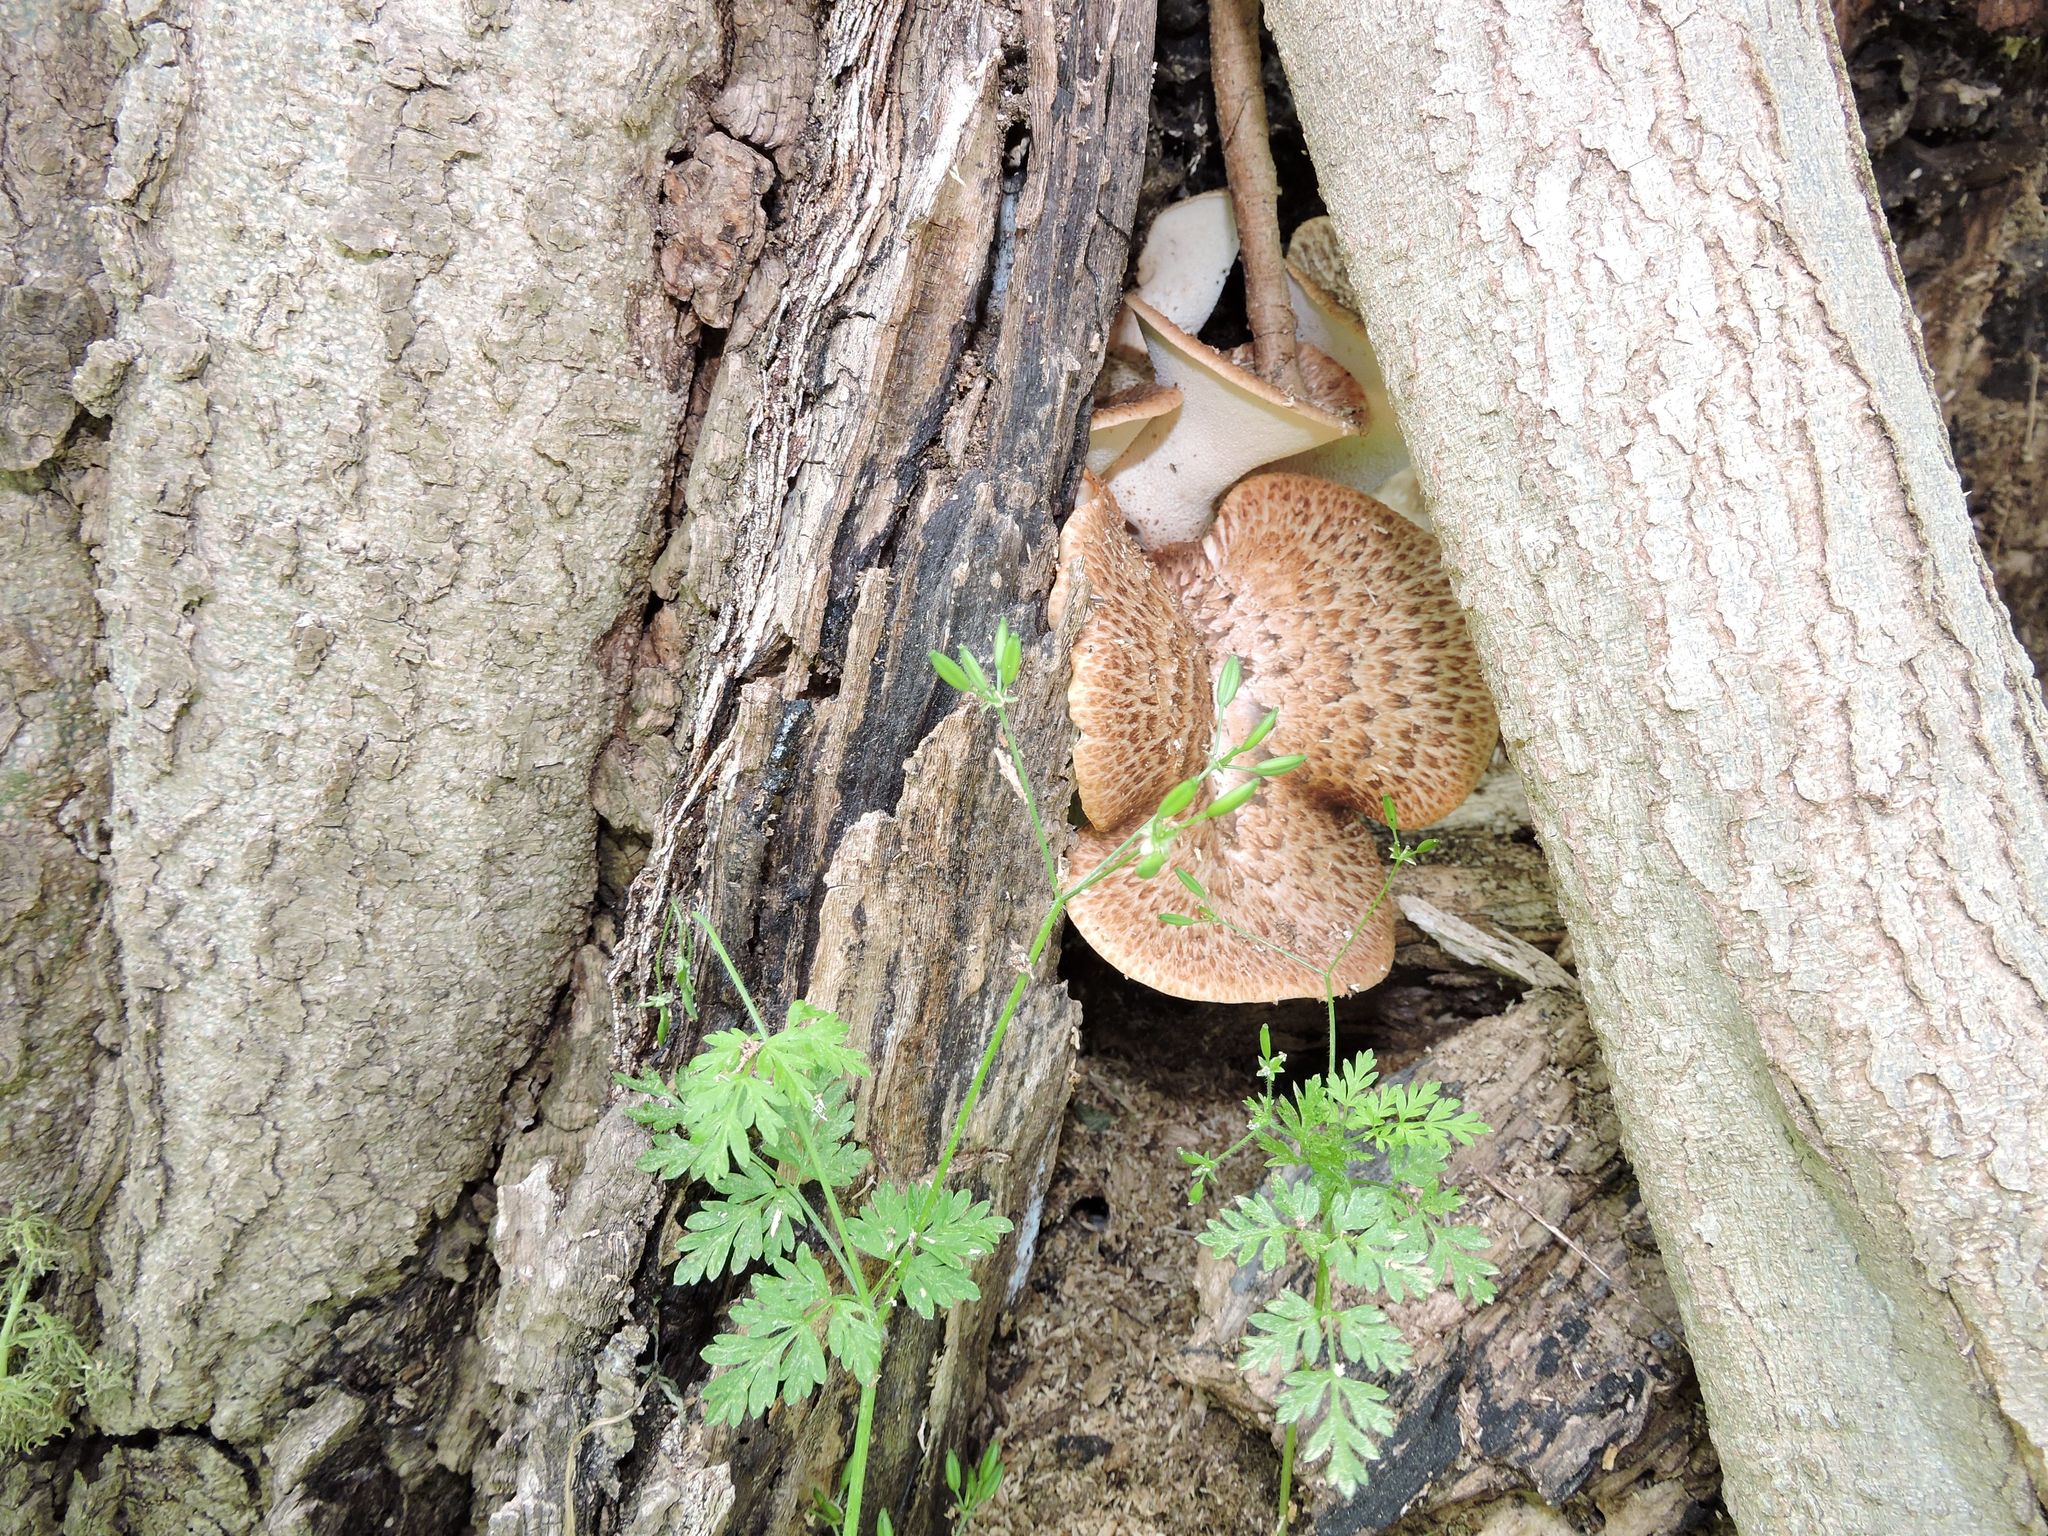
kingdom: Fungi
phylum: Basidiomycota
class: Agaricomycetes
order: Polyporales
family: Polyporaceae
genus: Cerioporus
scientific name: Cerioporus squamosus
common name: Dryad's saddle
